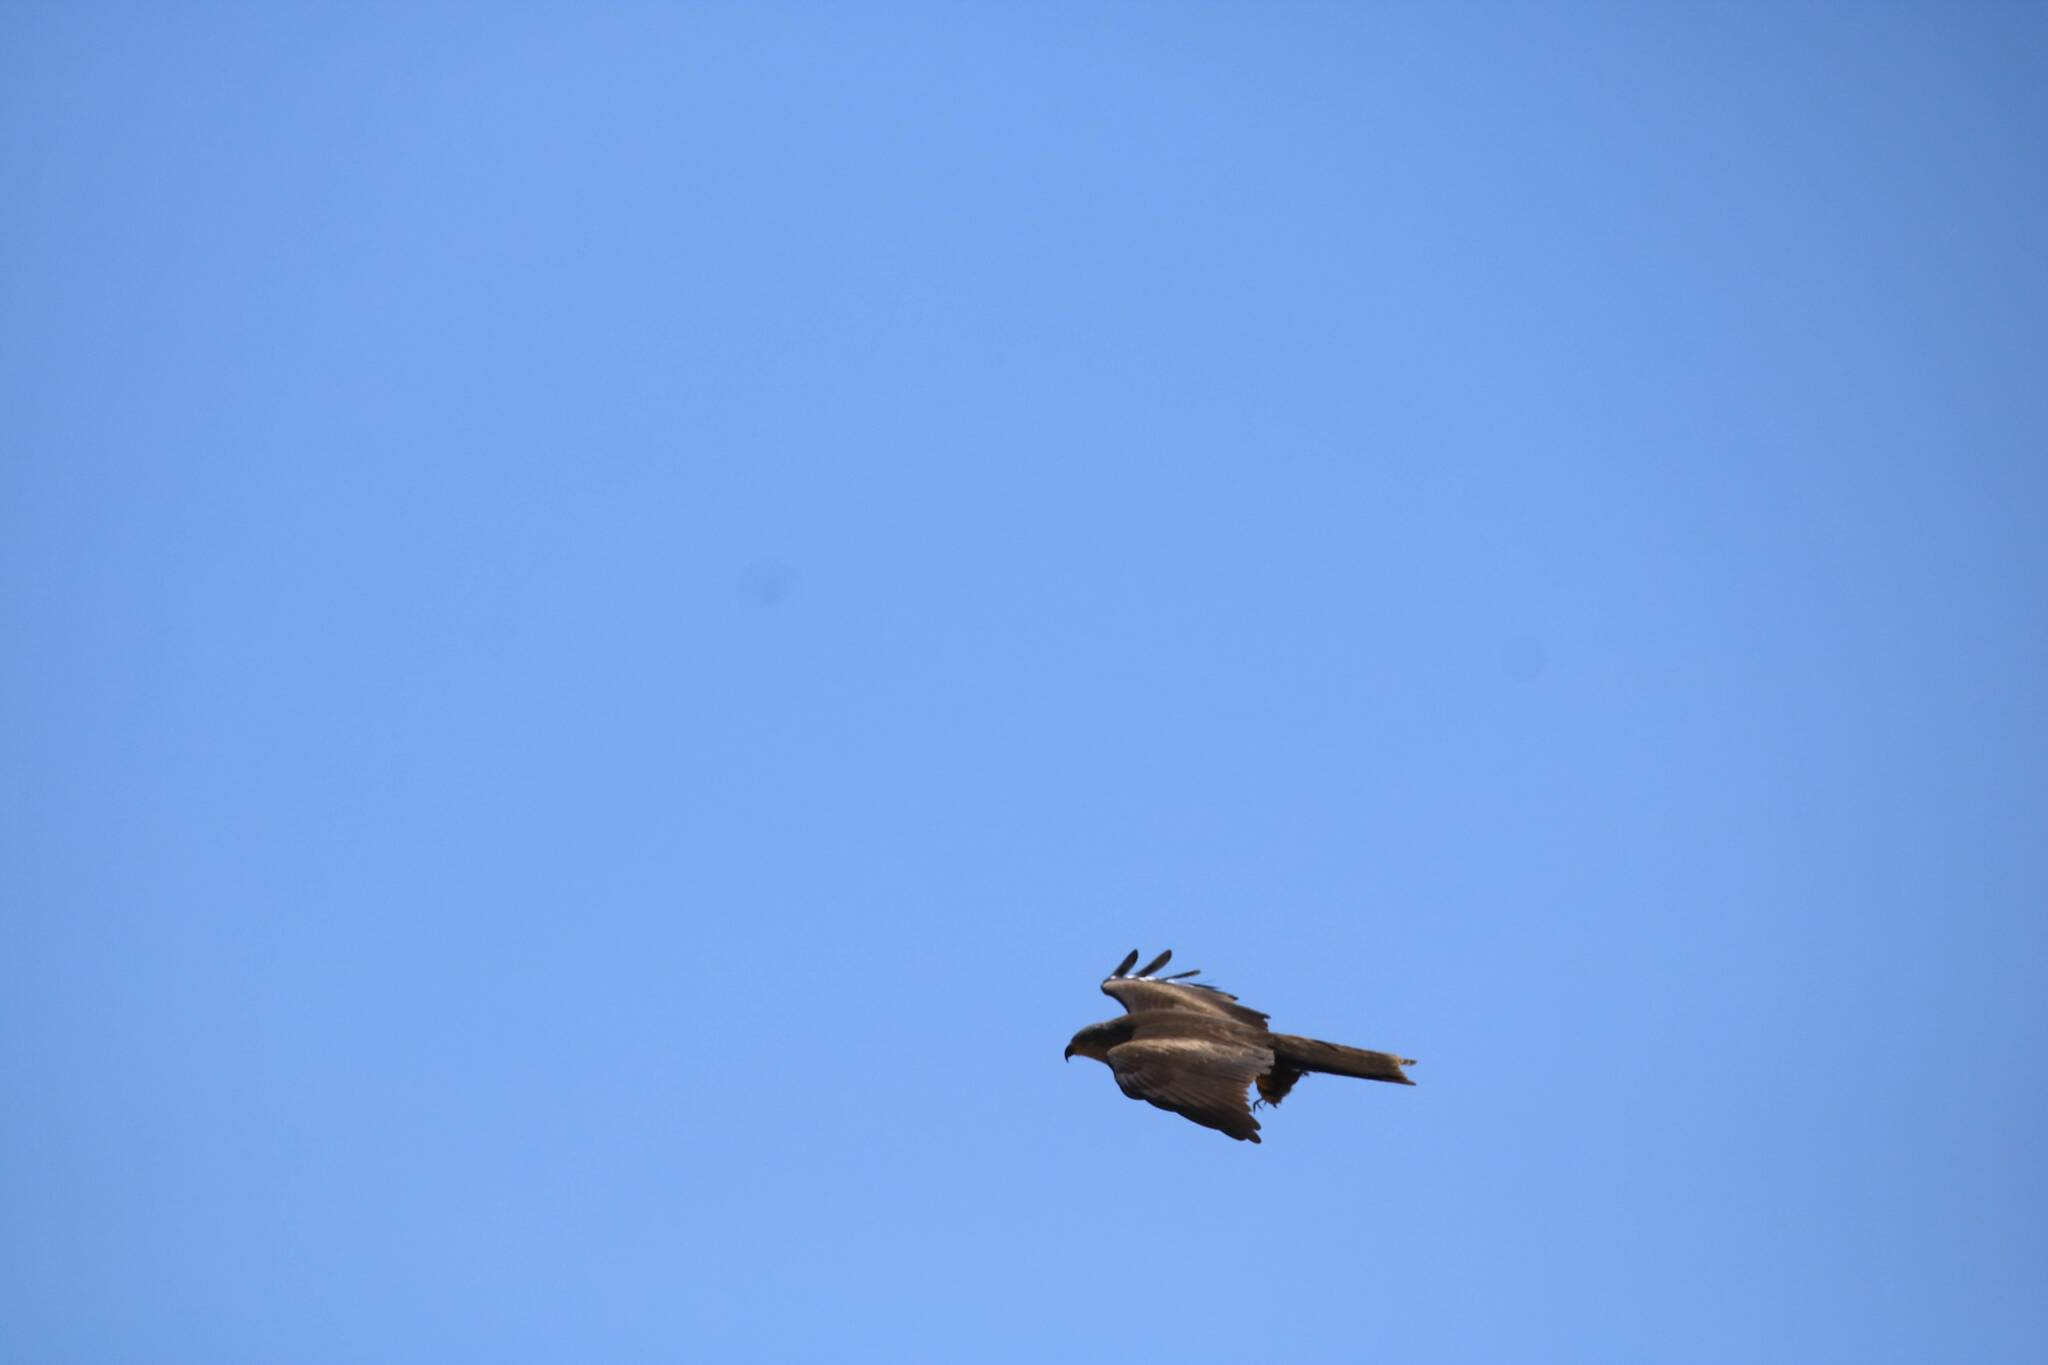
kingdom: Animalia
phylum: Chordata
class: Aves
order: Accipitriformes
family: Accipitridae
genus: Milvus
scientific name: Milvus migrans
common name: Black kite
